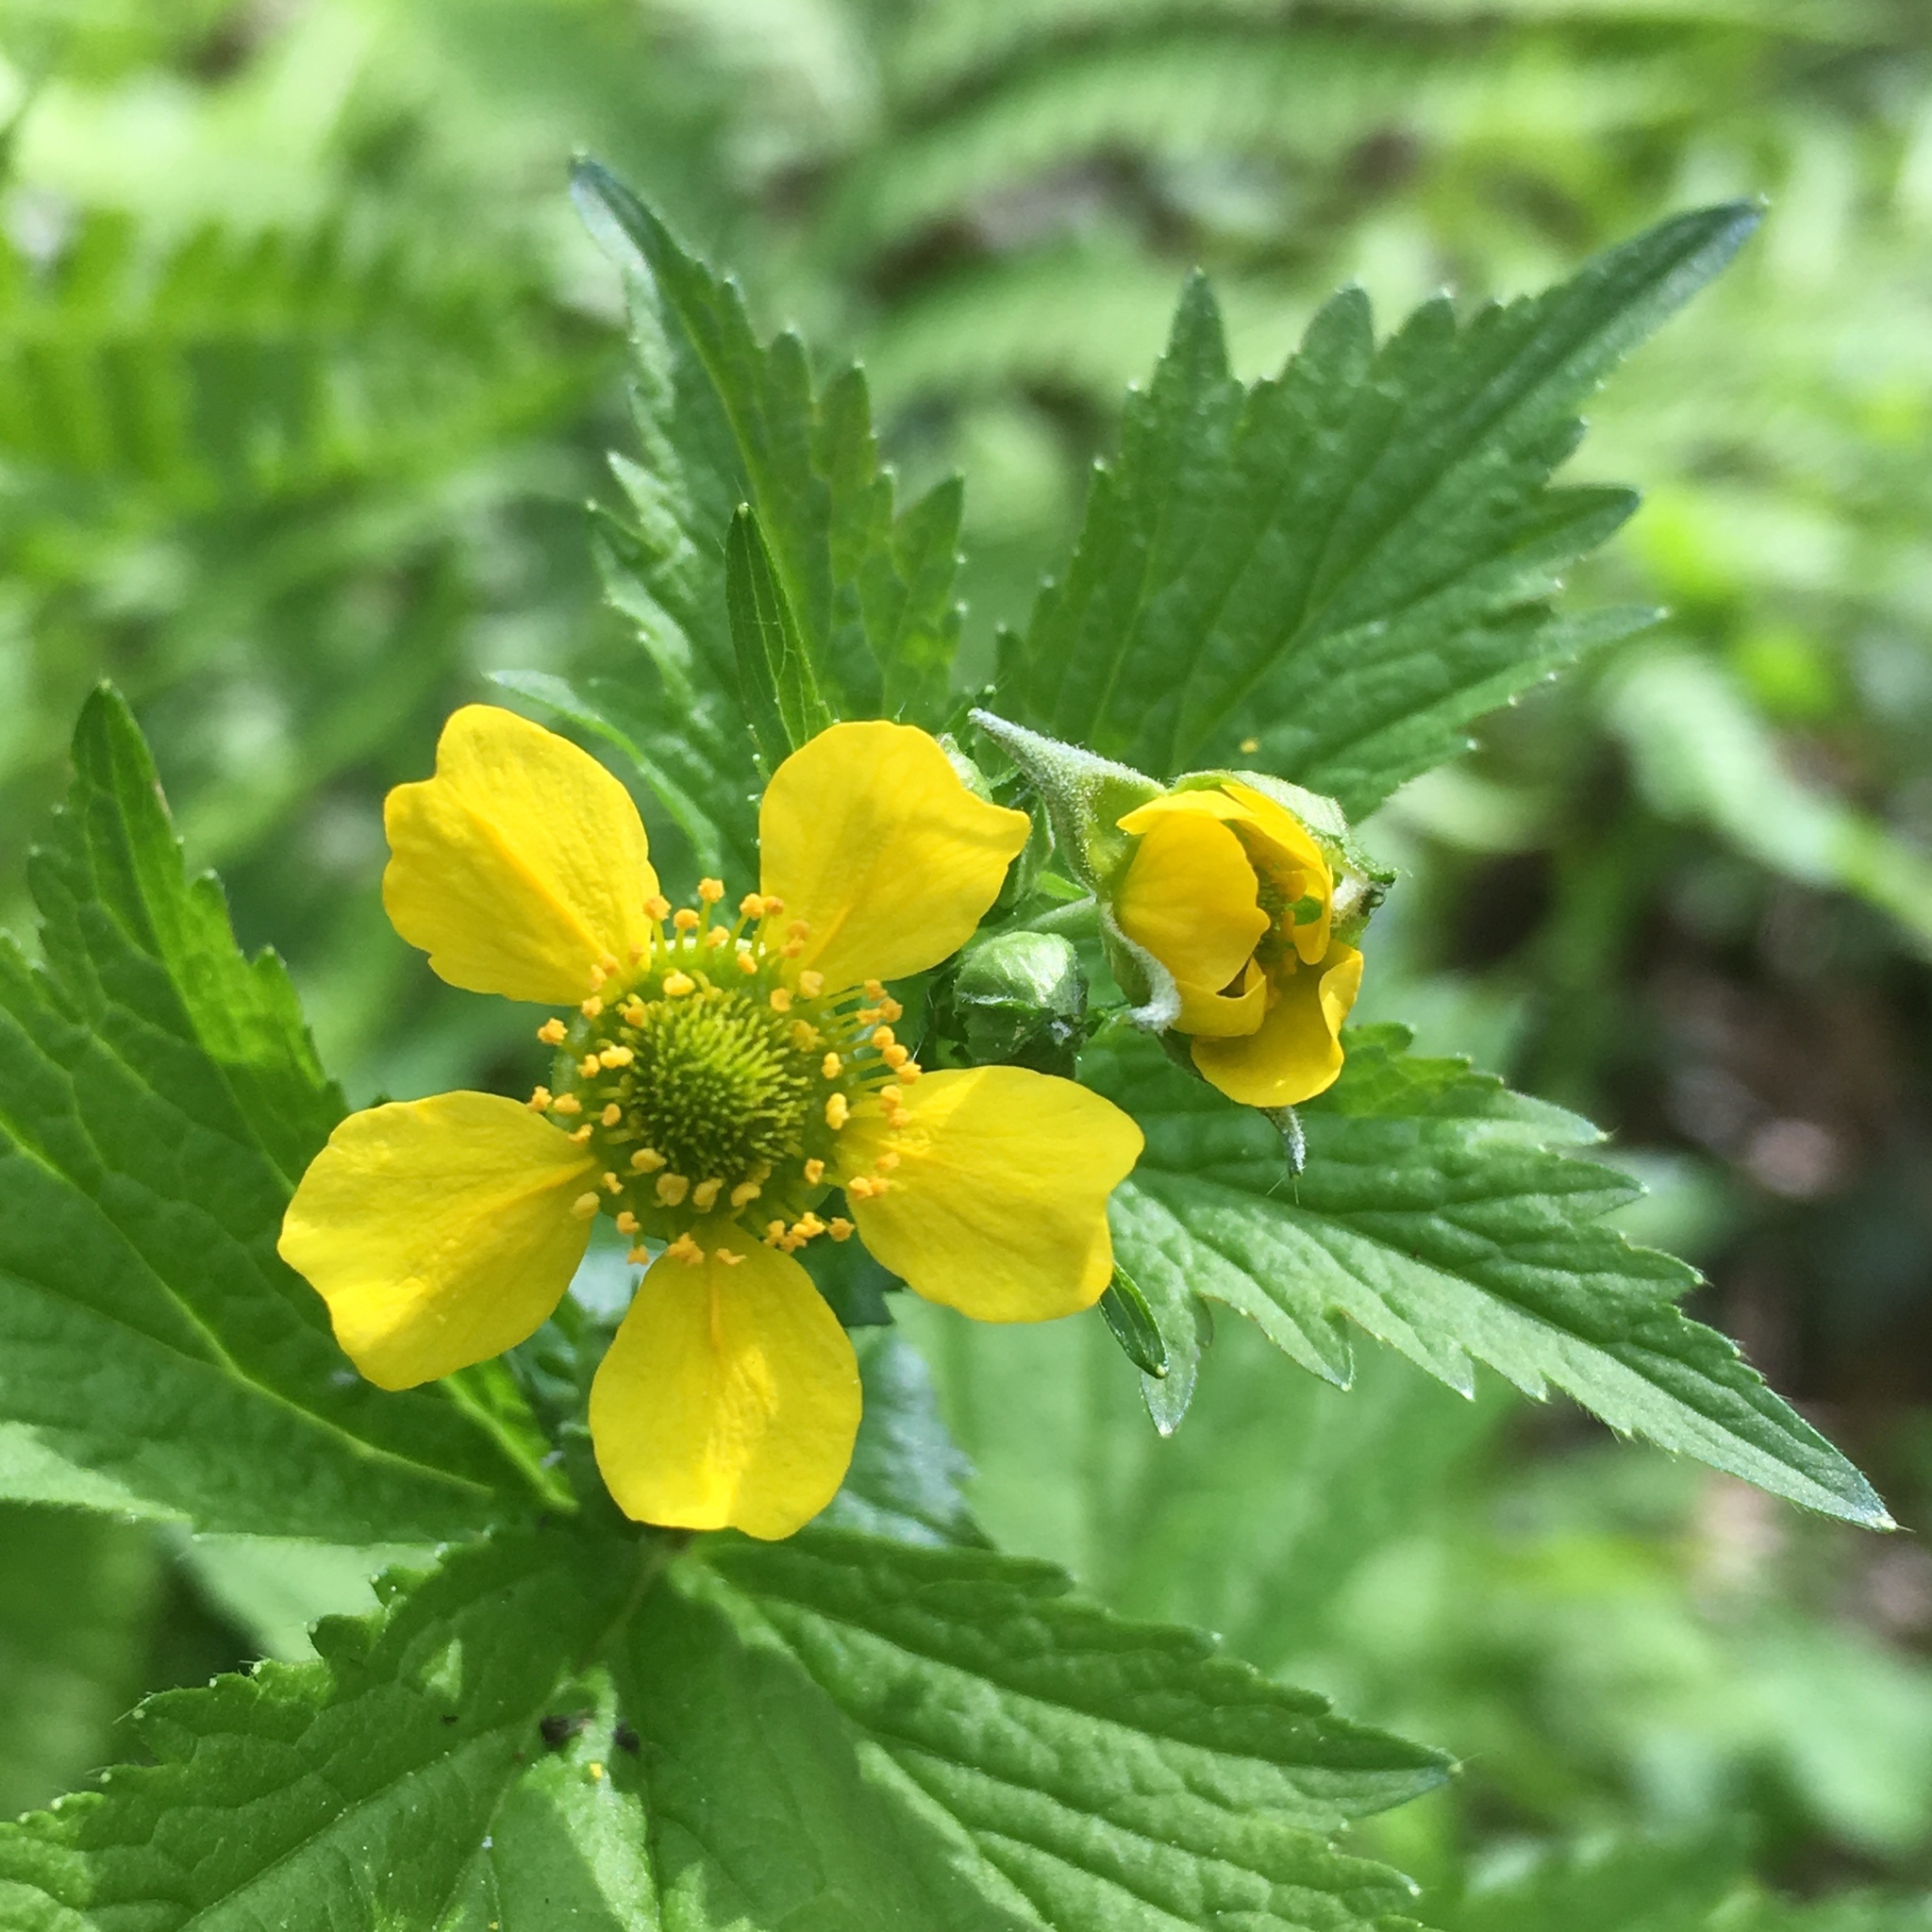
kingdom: Plantae
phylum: Tracheophyta
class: Magnoliopsida
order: Rosales
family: Rosaceae
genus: Geum
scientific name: Geum macrophyllum
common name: Large-leaved avens
